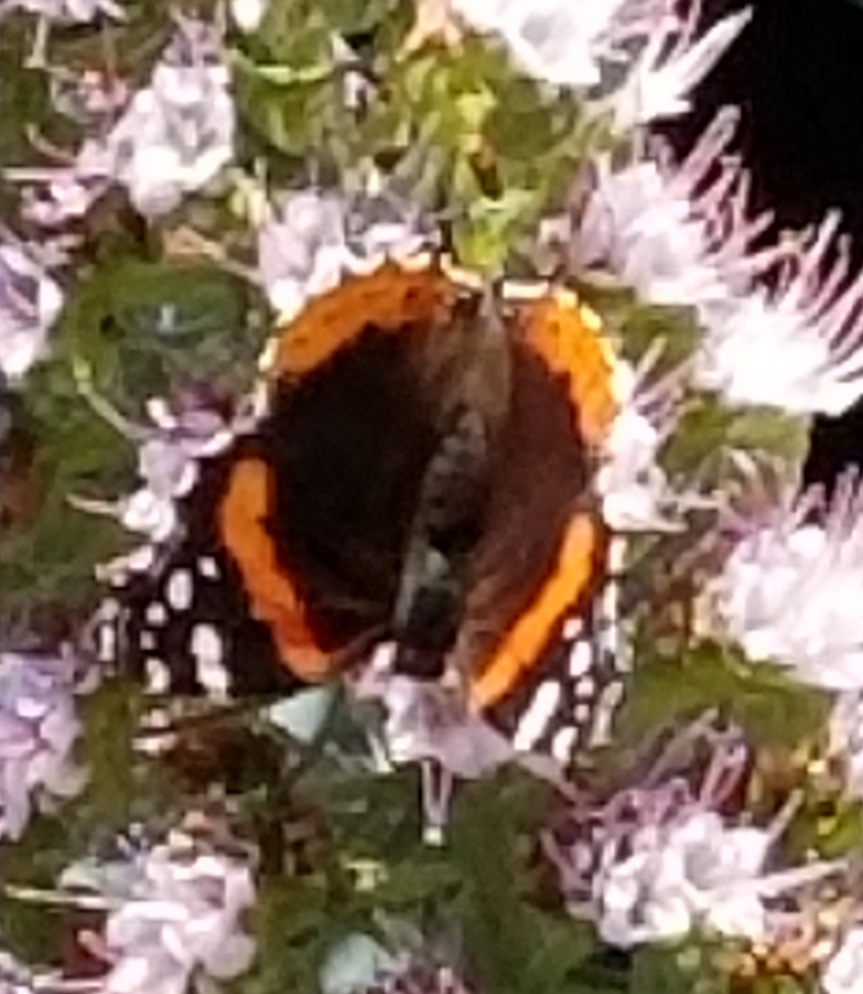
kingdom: Animalia
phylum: Arthropoda
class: Insecta
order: Lepidoptera
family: Nymphalidae
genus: Vanessa
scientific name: Vanessa atalanta
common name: Red admiral
